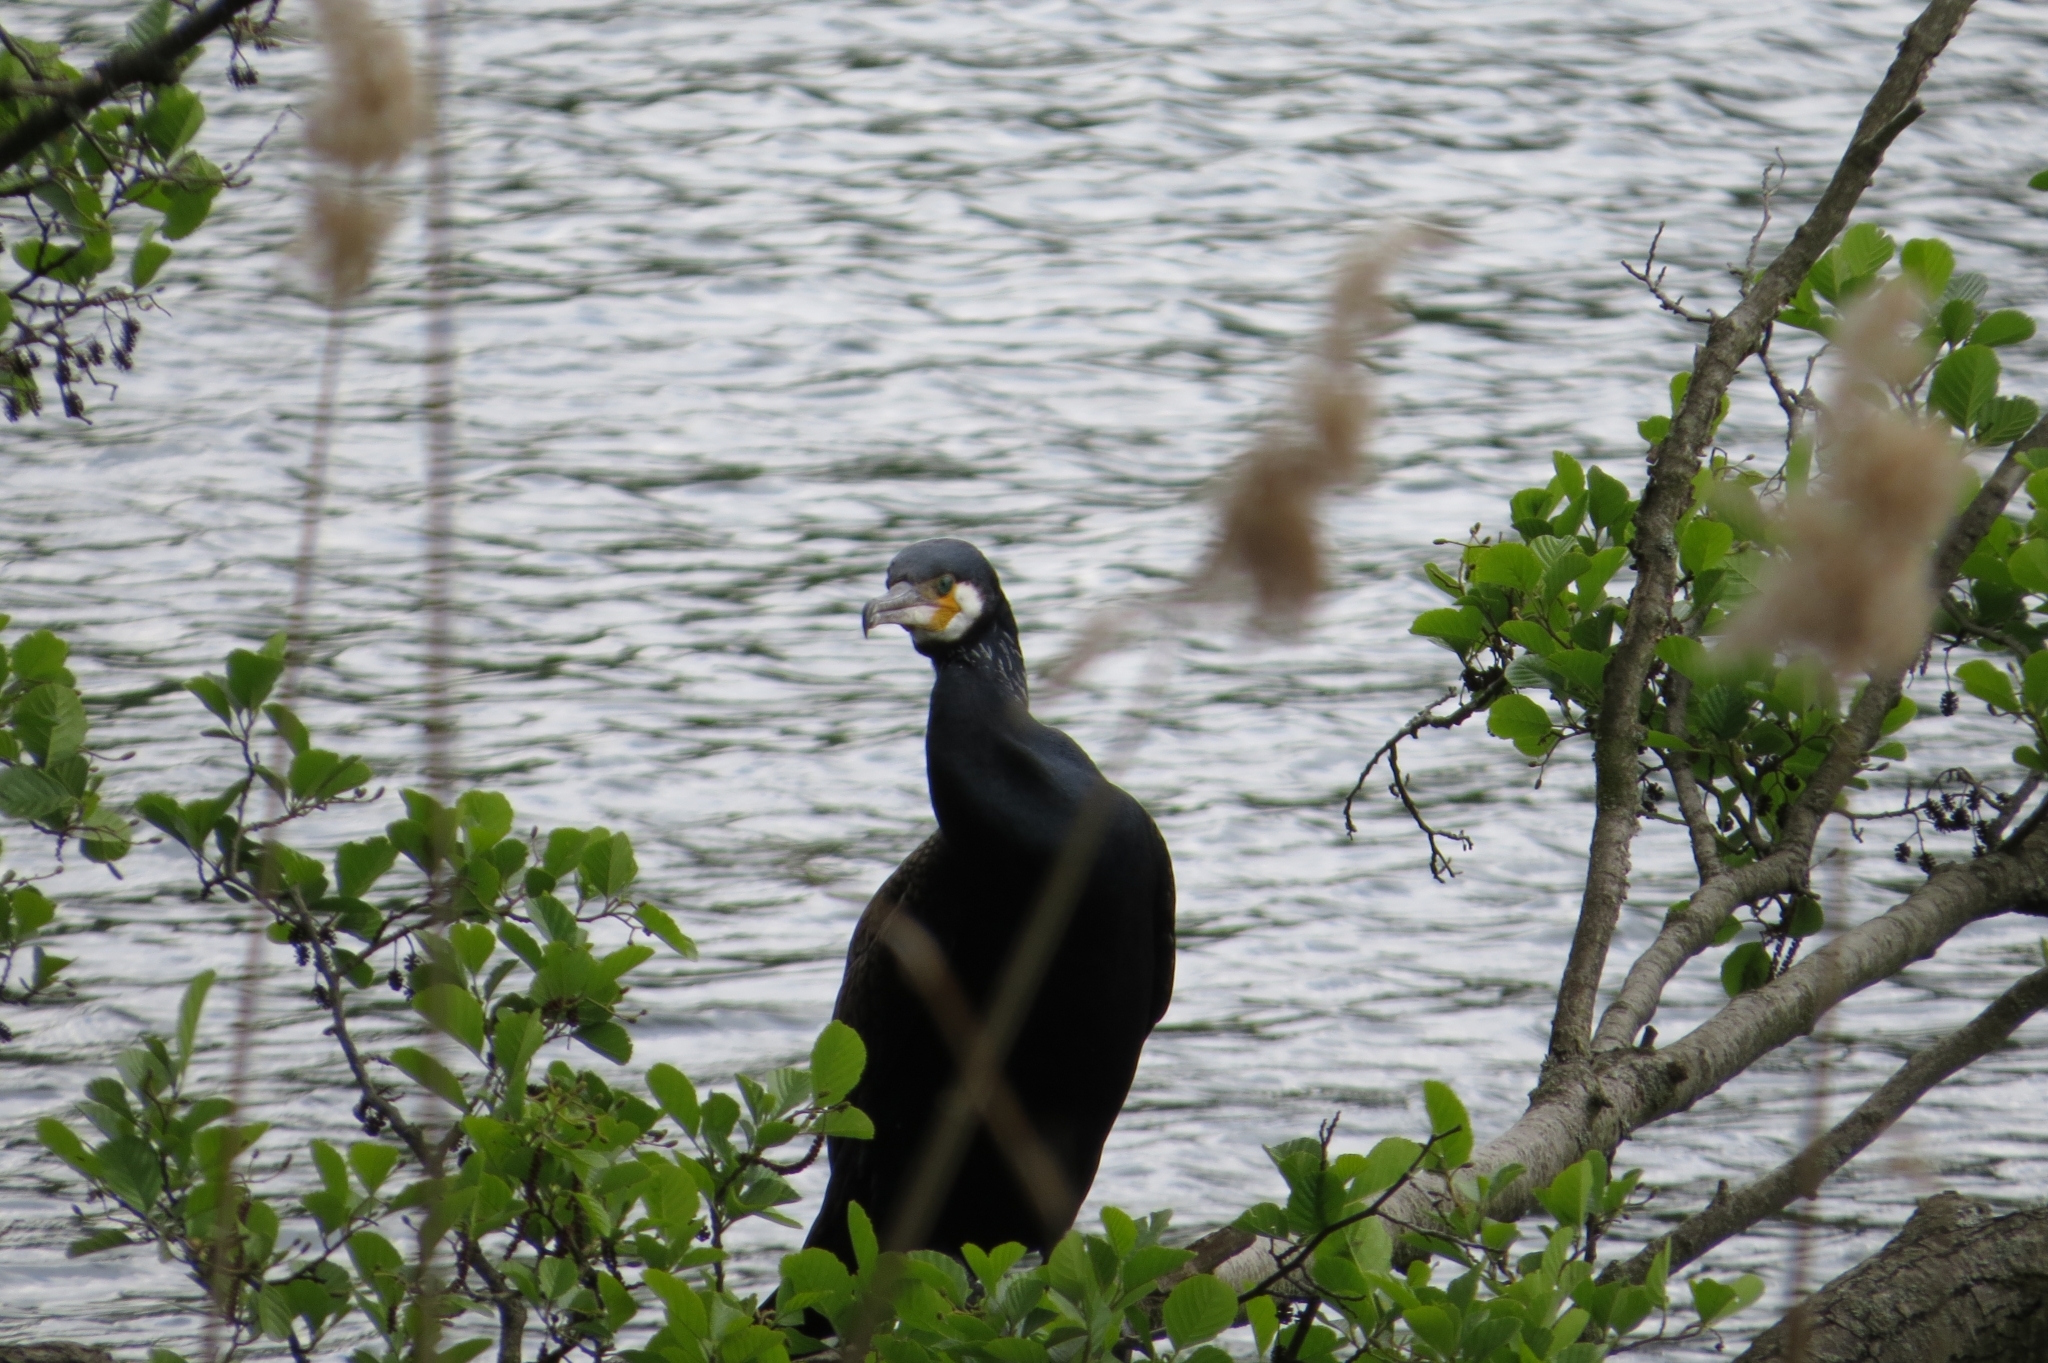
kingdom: Animalia
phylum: Chordata
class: Aves
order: Suliformes
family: Phalacrocoracidae
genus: Phalacrocorax
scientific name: Phalacrocorax carbo
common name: Great cormorant
